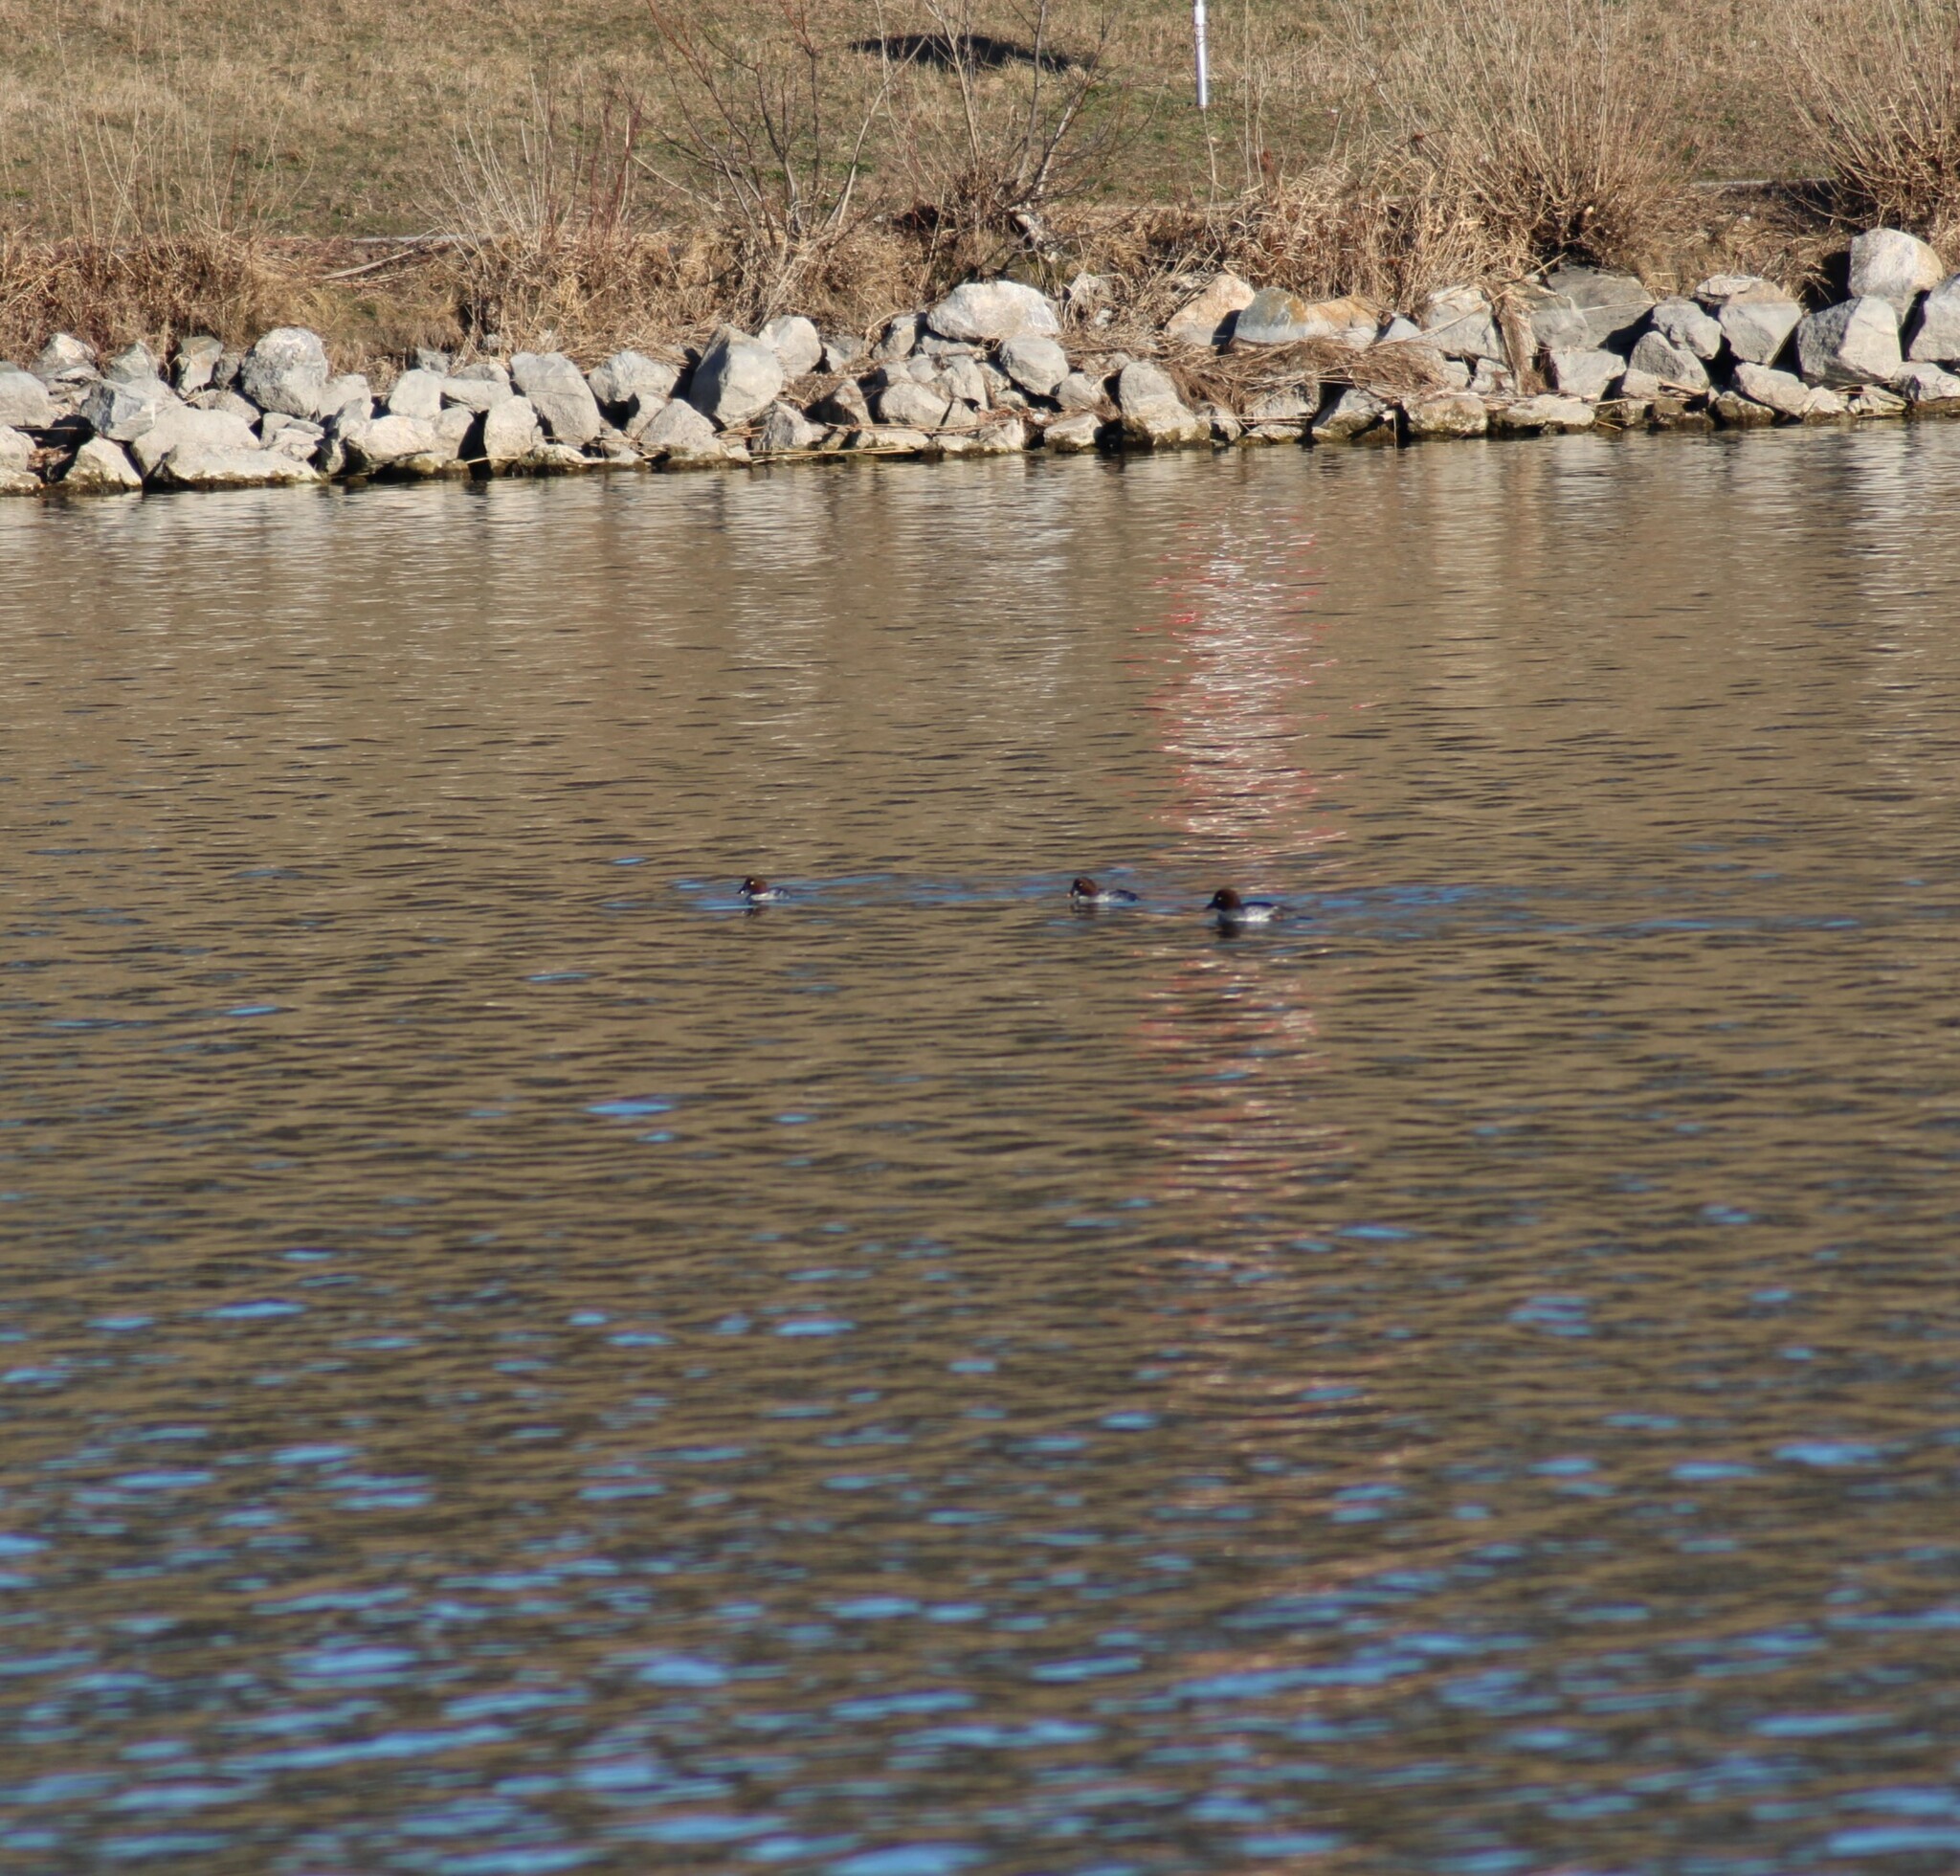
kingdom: Animalia
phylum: Chordata
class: Aves
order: Anseriformes
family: Anatidae
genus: Bucephala
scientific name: Bucephala clangula
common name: Common goldeneye
